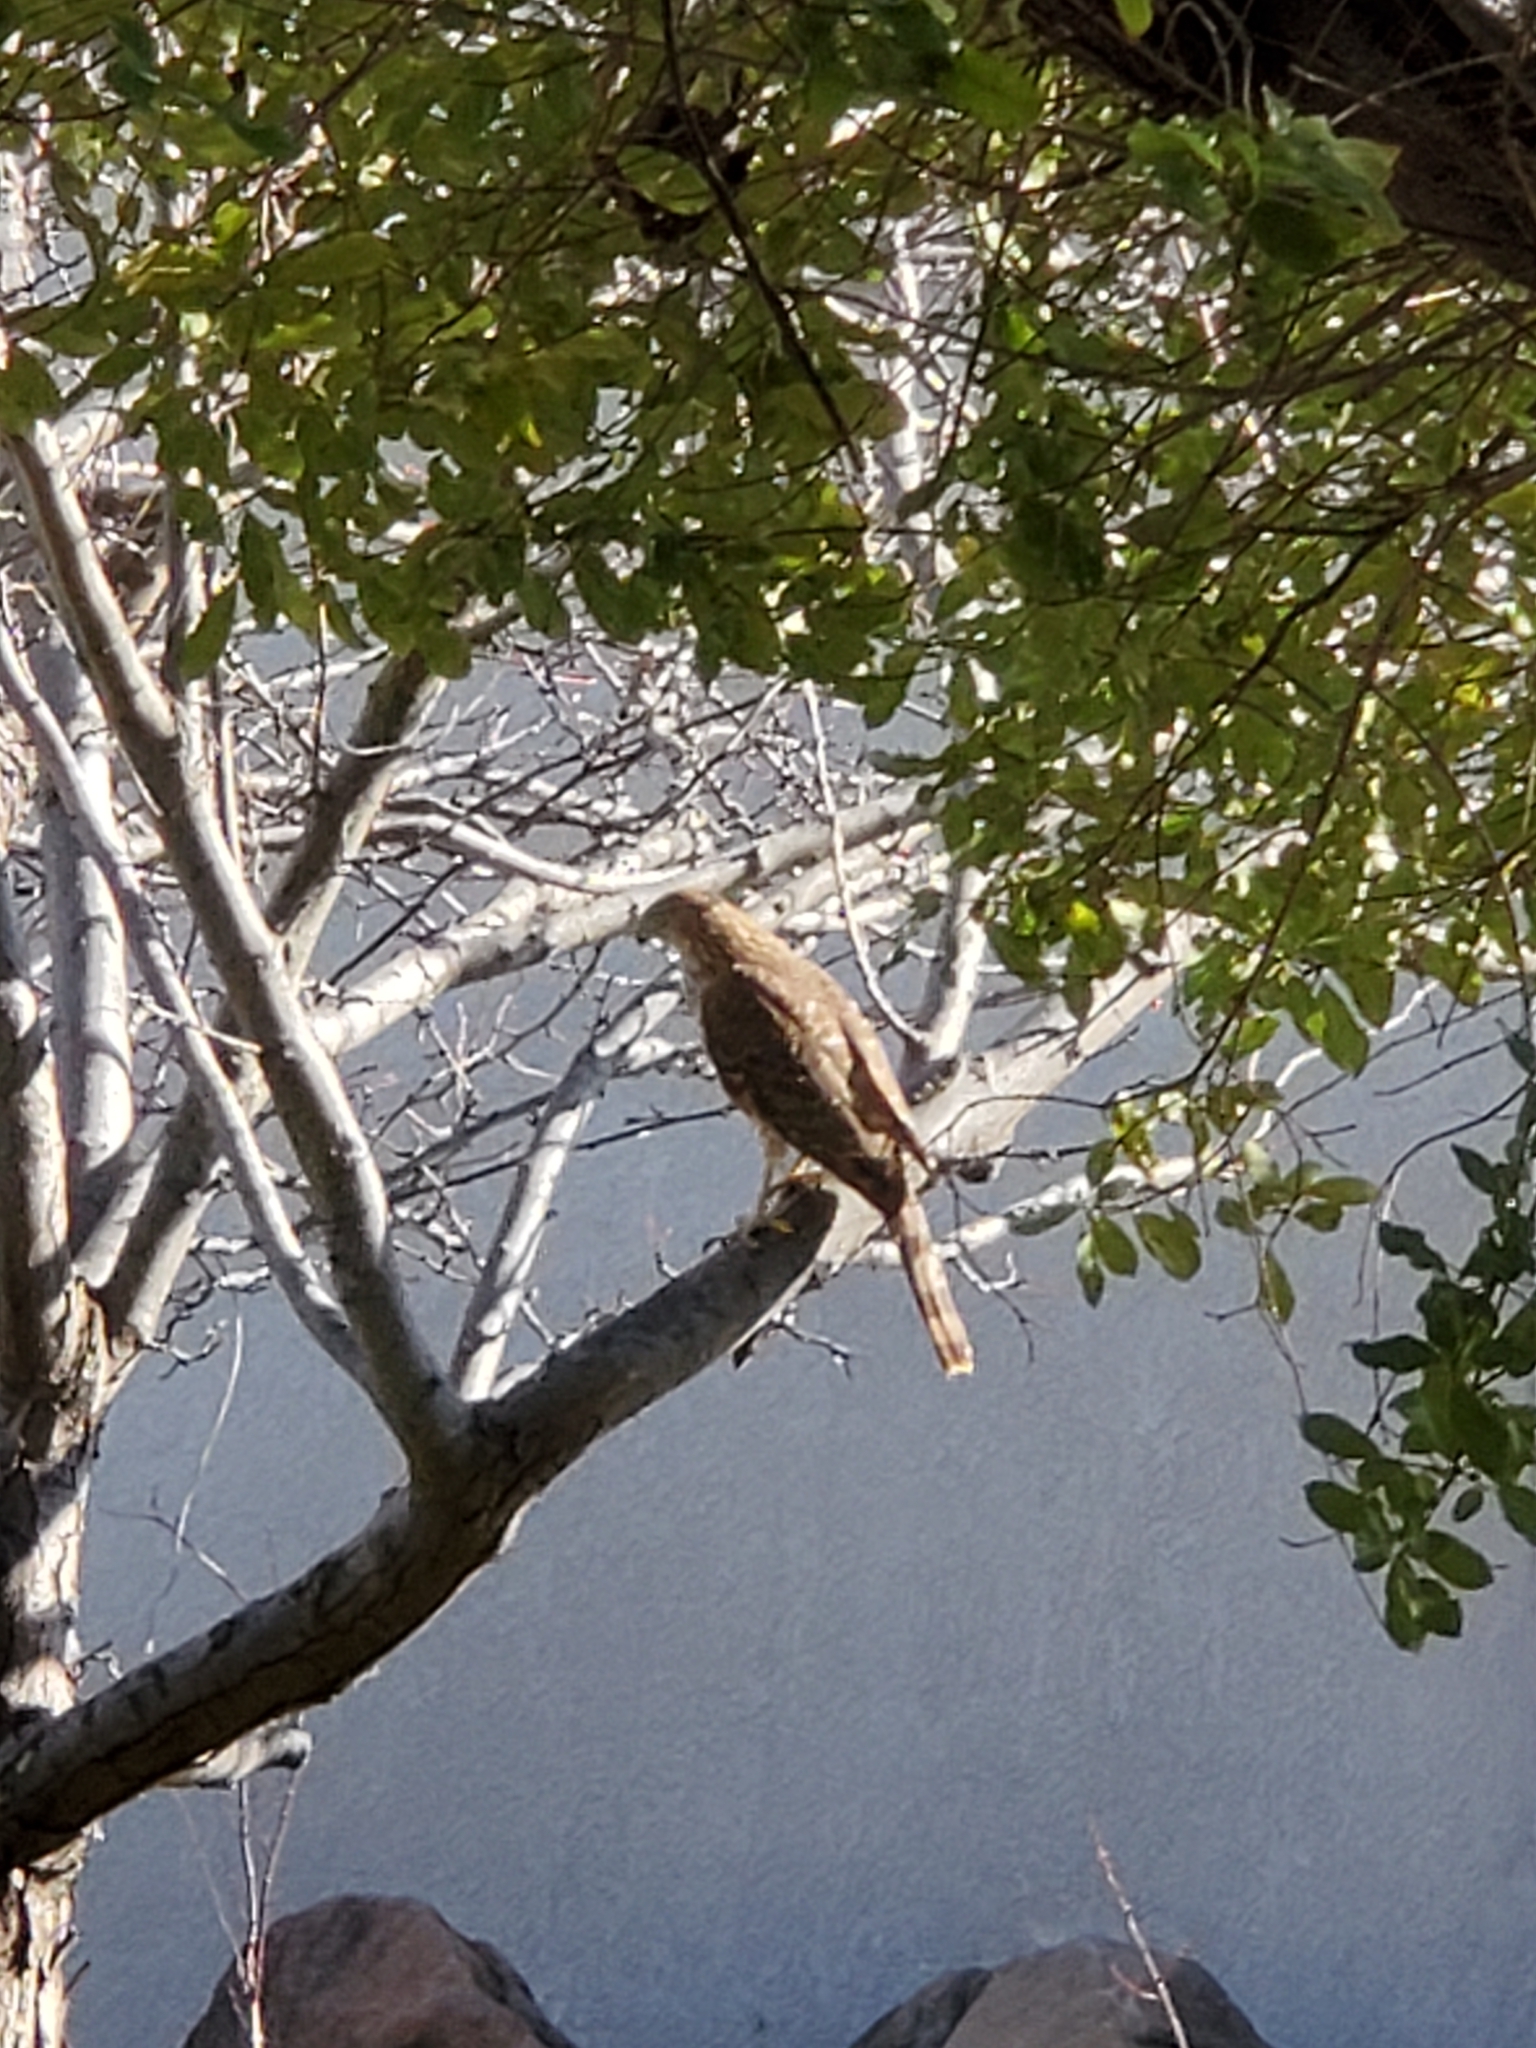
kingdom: Animalia
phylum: Chordata
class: Aves
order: Accipitriformes
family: Accipitridae
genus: Accipiter
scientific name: Accipiter cooperii
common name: Cooper's hawk
